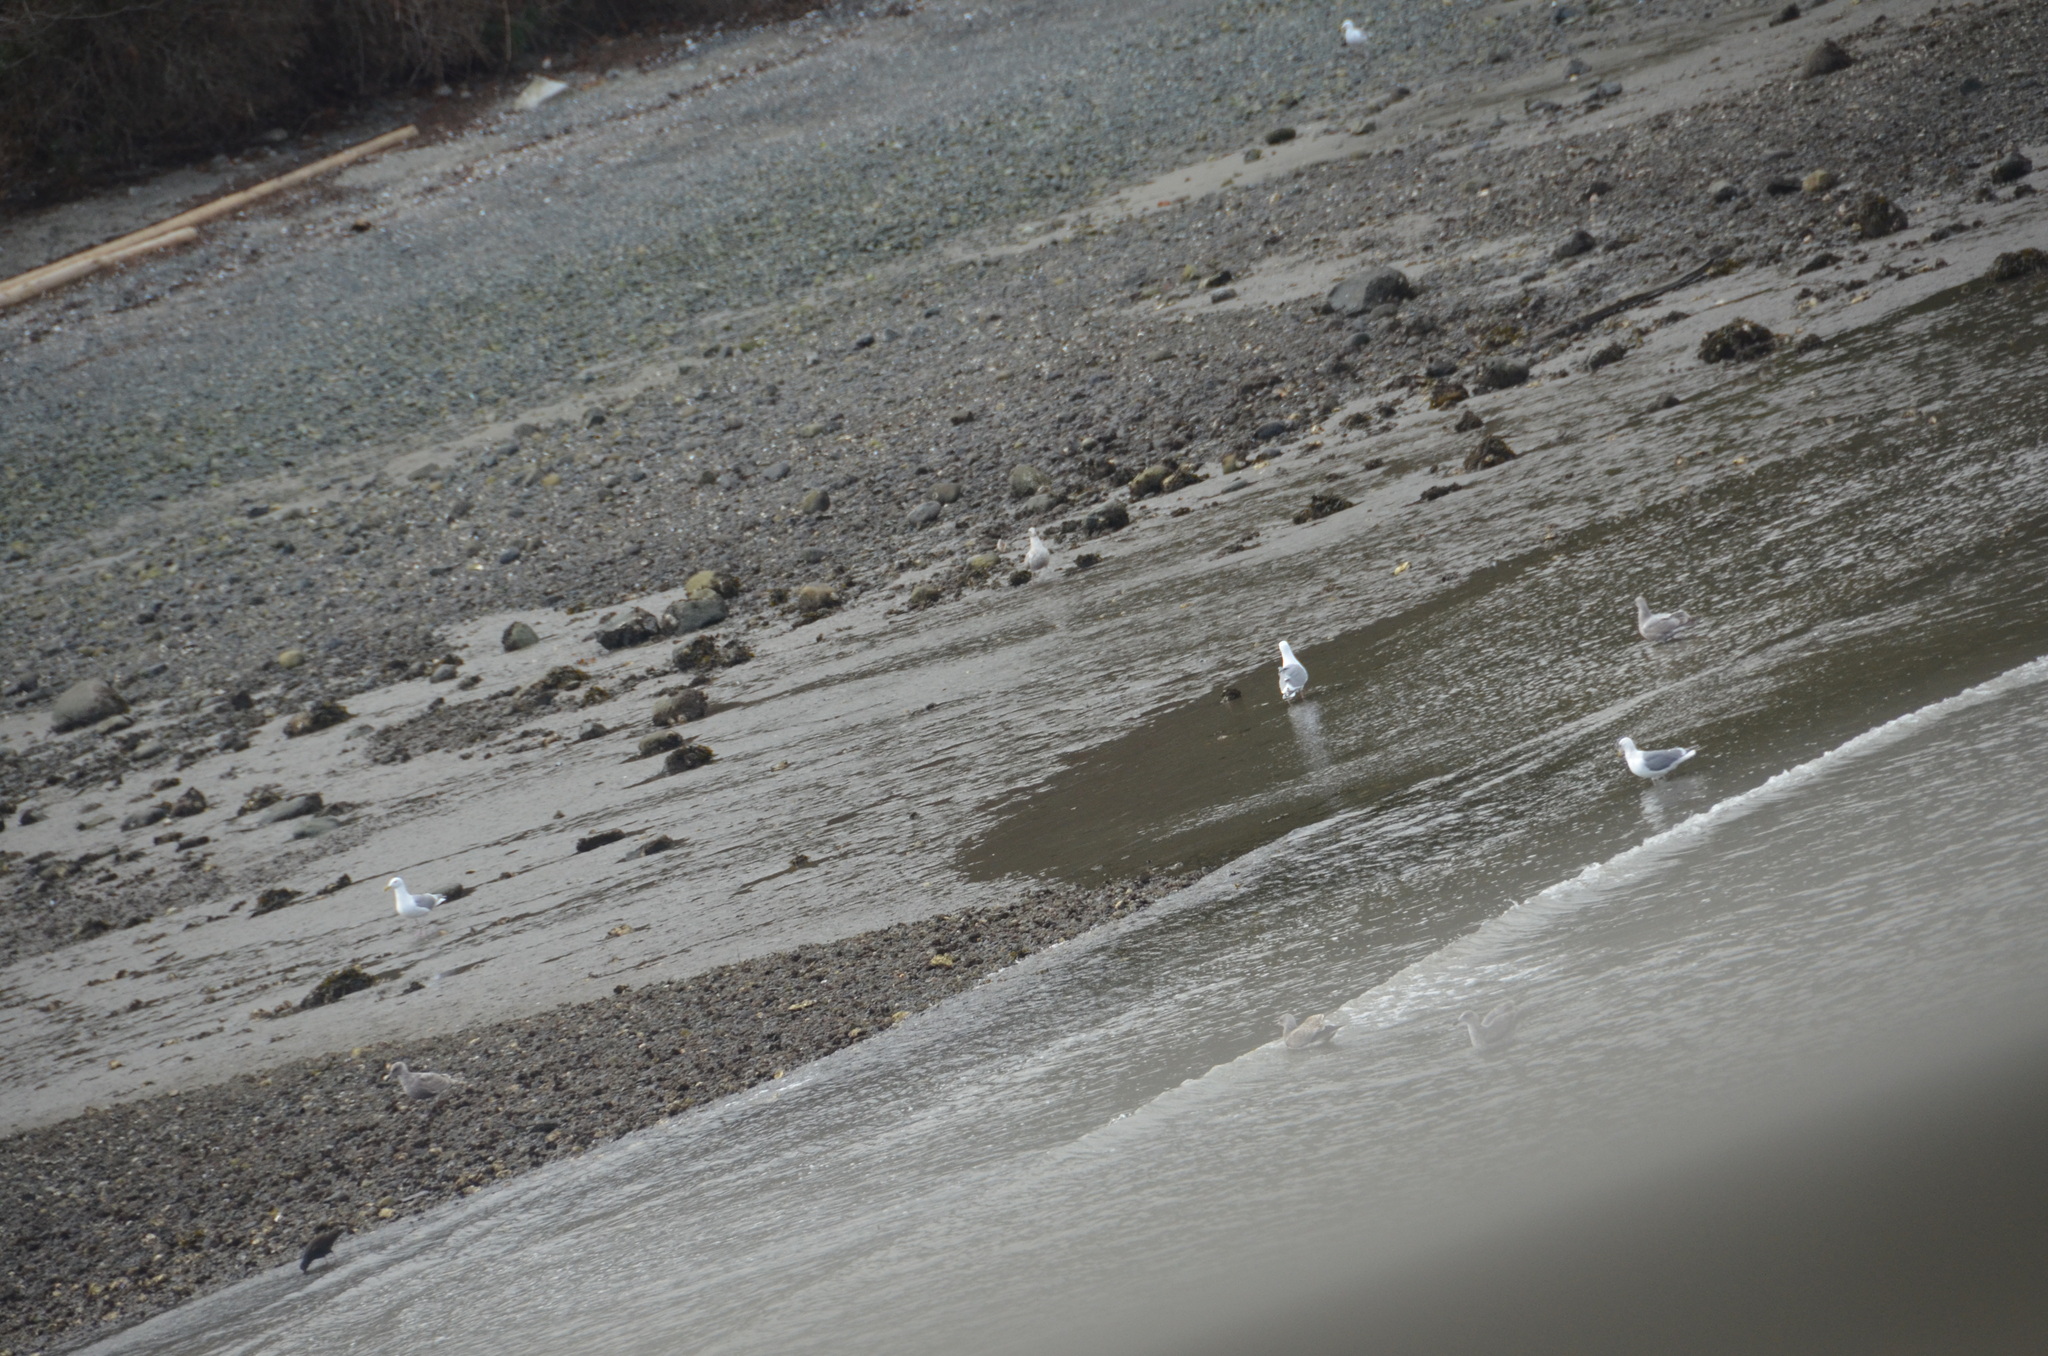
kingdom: Animalia
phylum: Chordata
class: Aves
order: Charadriiformes
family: Laridae
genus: Larus
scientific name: Larus glaucescens
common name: Glaucous-winged gull
